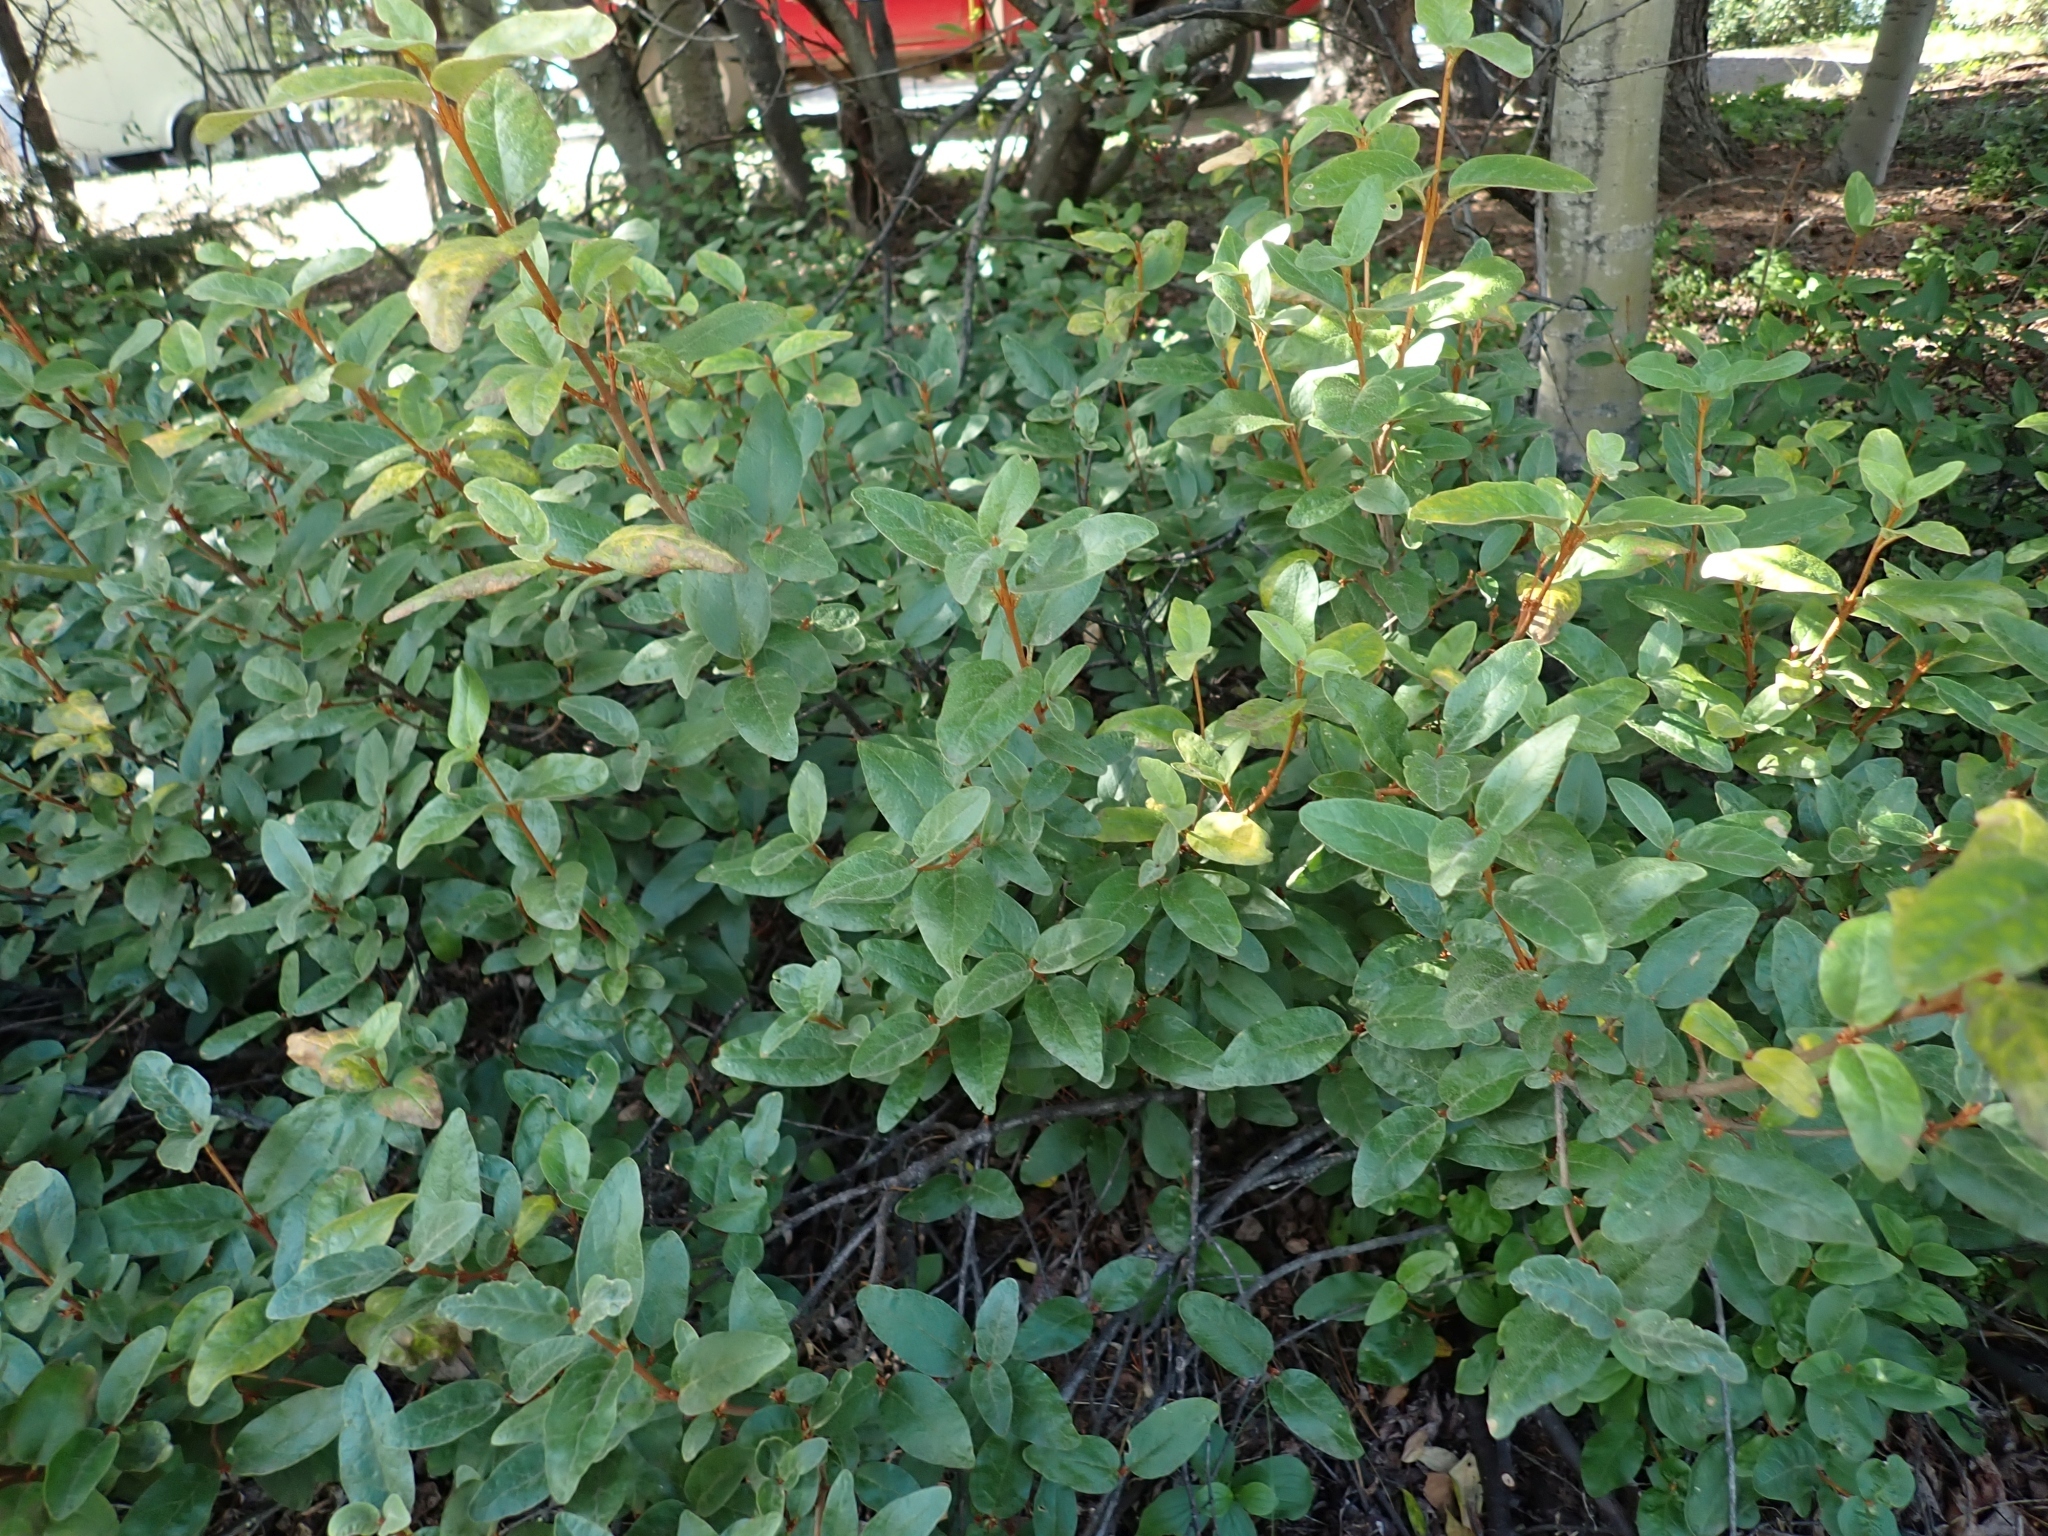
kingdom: Plantae
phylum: Tracheophyta
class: Magnoliopsida
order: Rosales
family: Elaeagnaceae
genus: Shepherdia
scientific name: Shepherdia canadensis
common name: Soapberry
